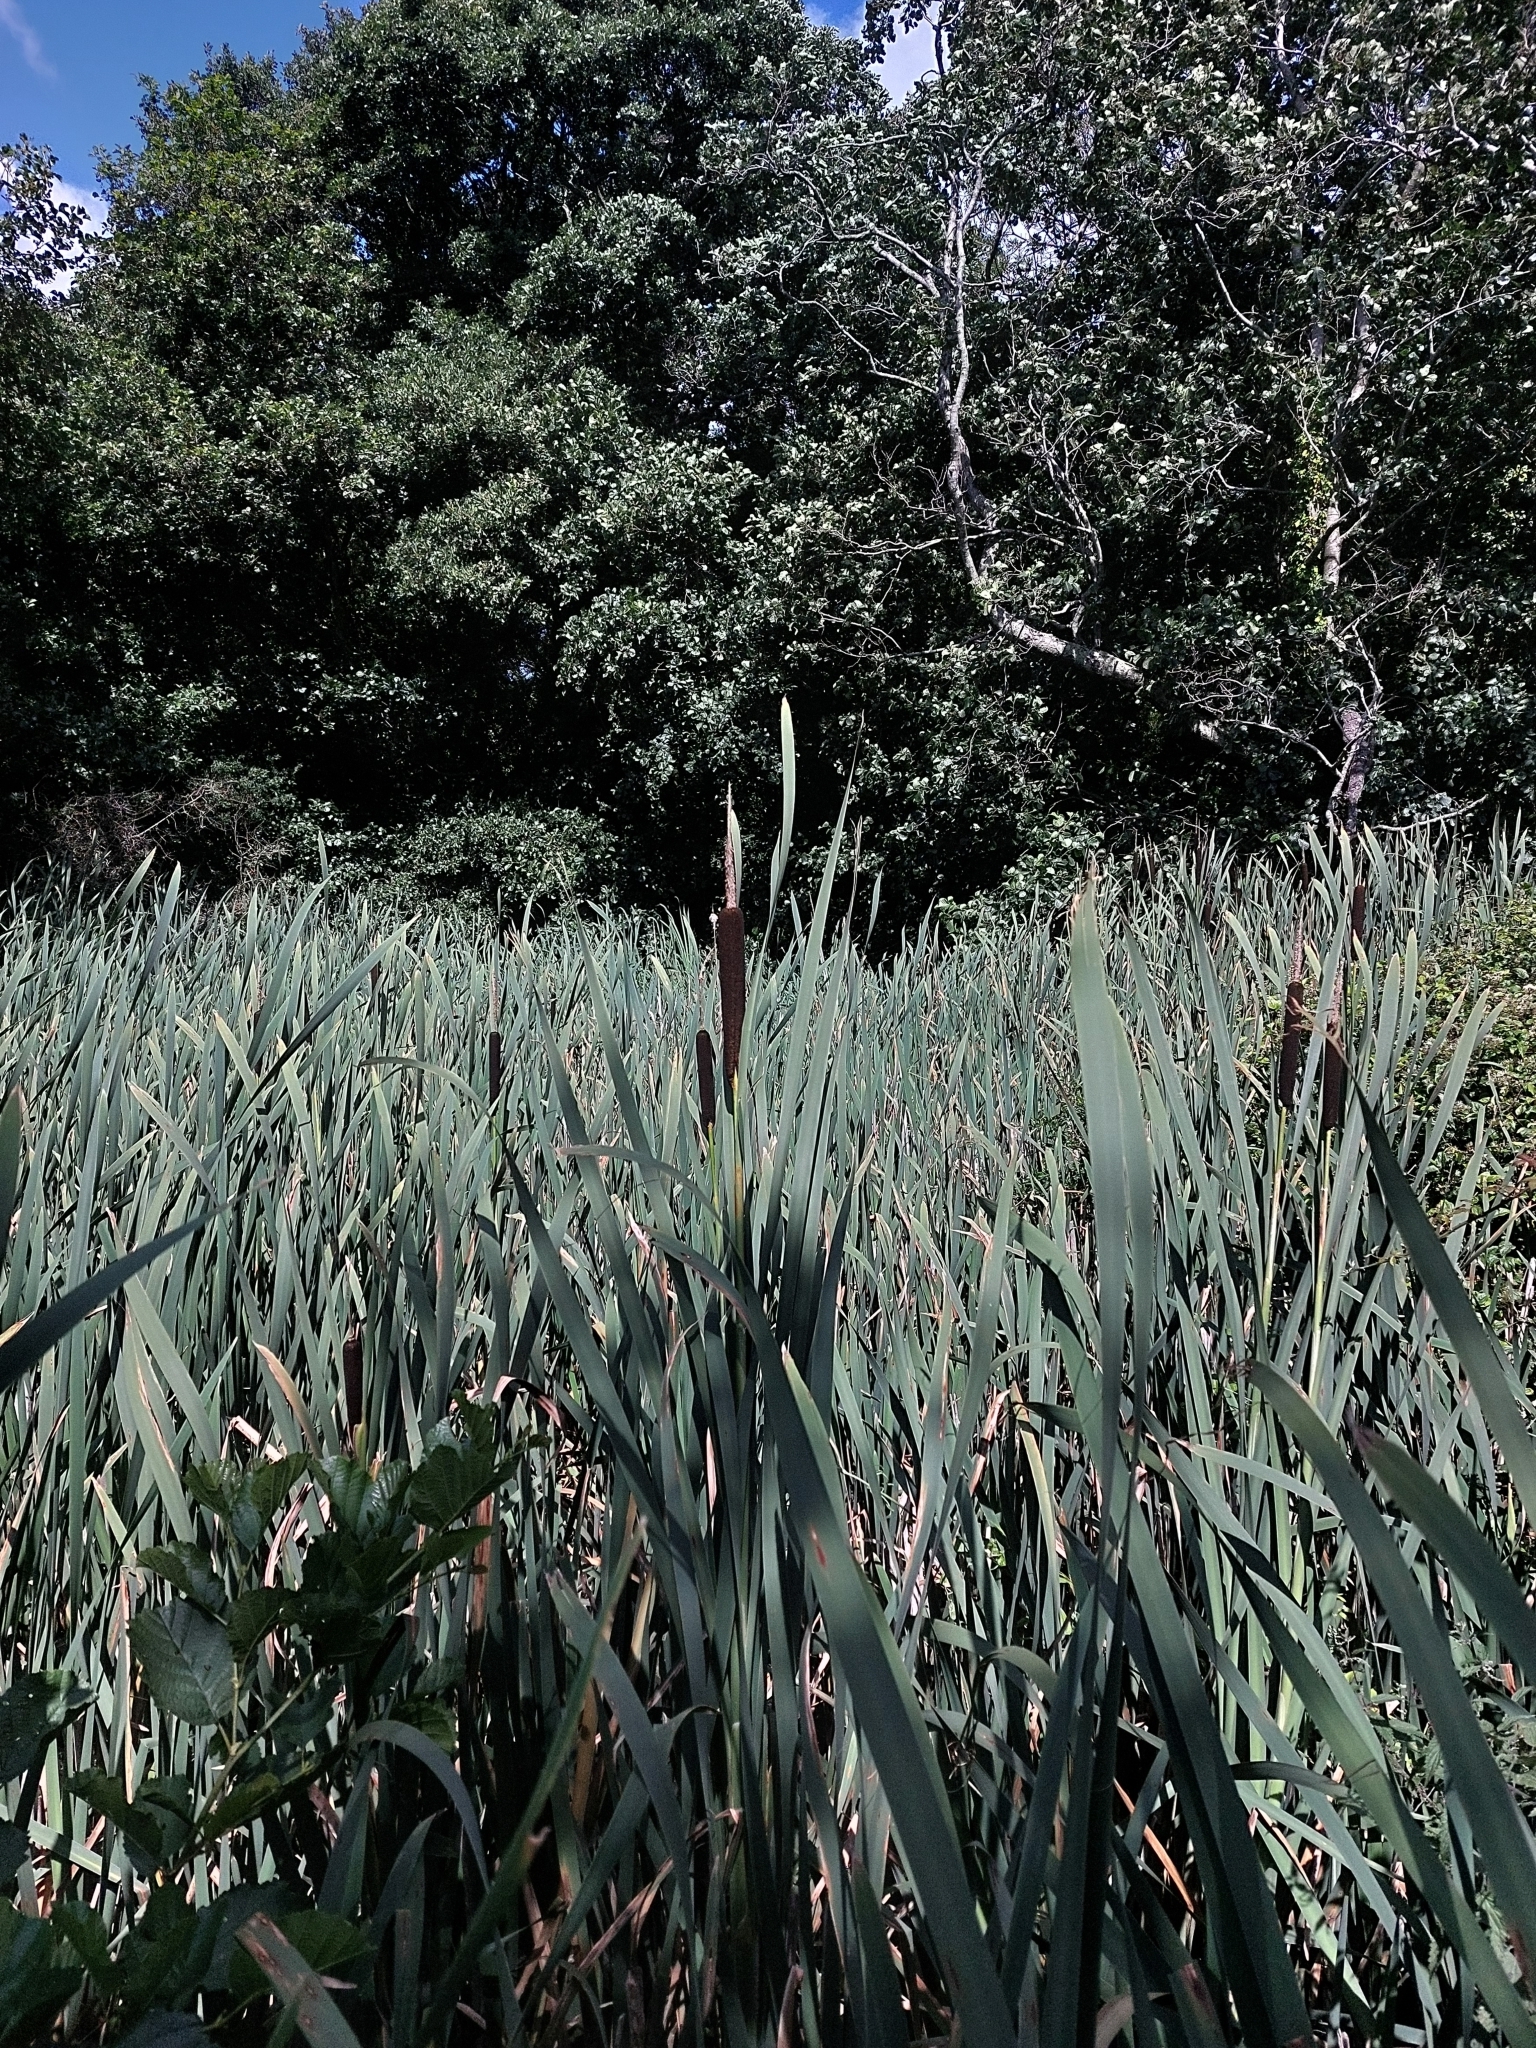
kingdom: Plantae
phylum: Tracheophyta
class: Liliopsida
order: Poales
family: Typhaceae
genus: Typha
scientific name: Typha latifolia
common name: Broadleaf cattail
